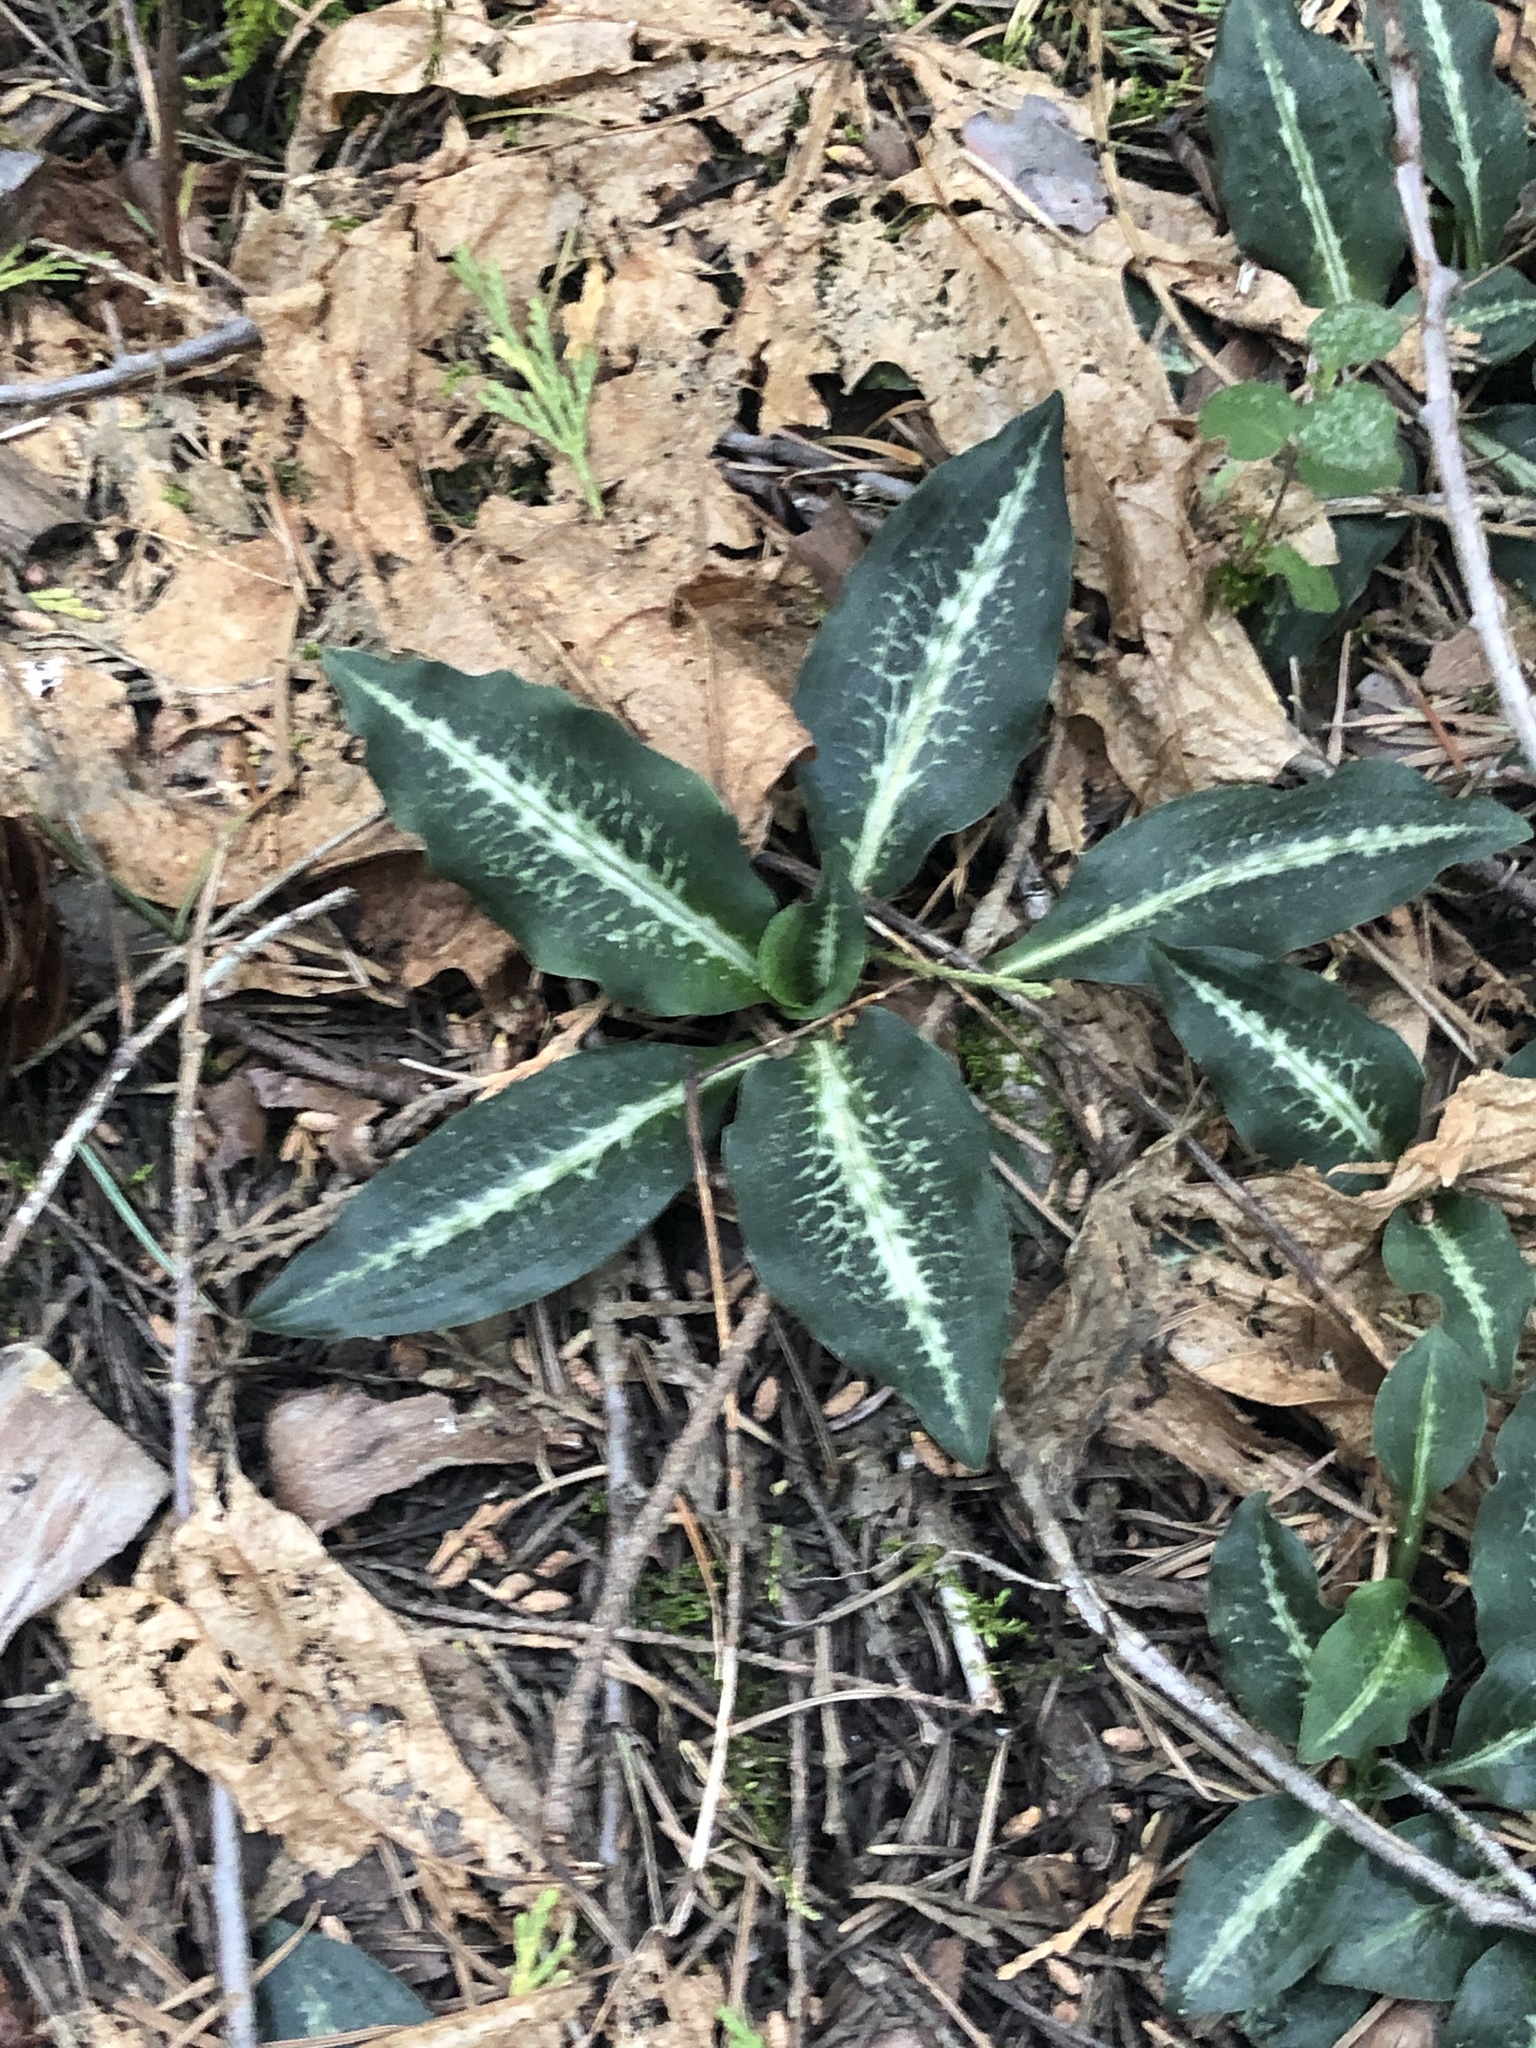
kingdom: Plantae
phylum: Tracheophyta
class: Liliopsida
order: Asparagales
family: Orchidaceae
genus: Goodyera
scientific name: Goodyera oblongifolia
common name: Giant rattlesnake-plantain
